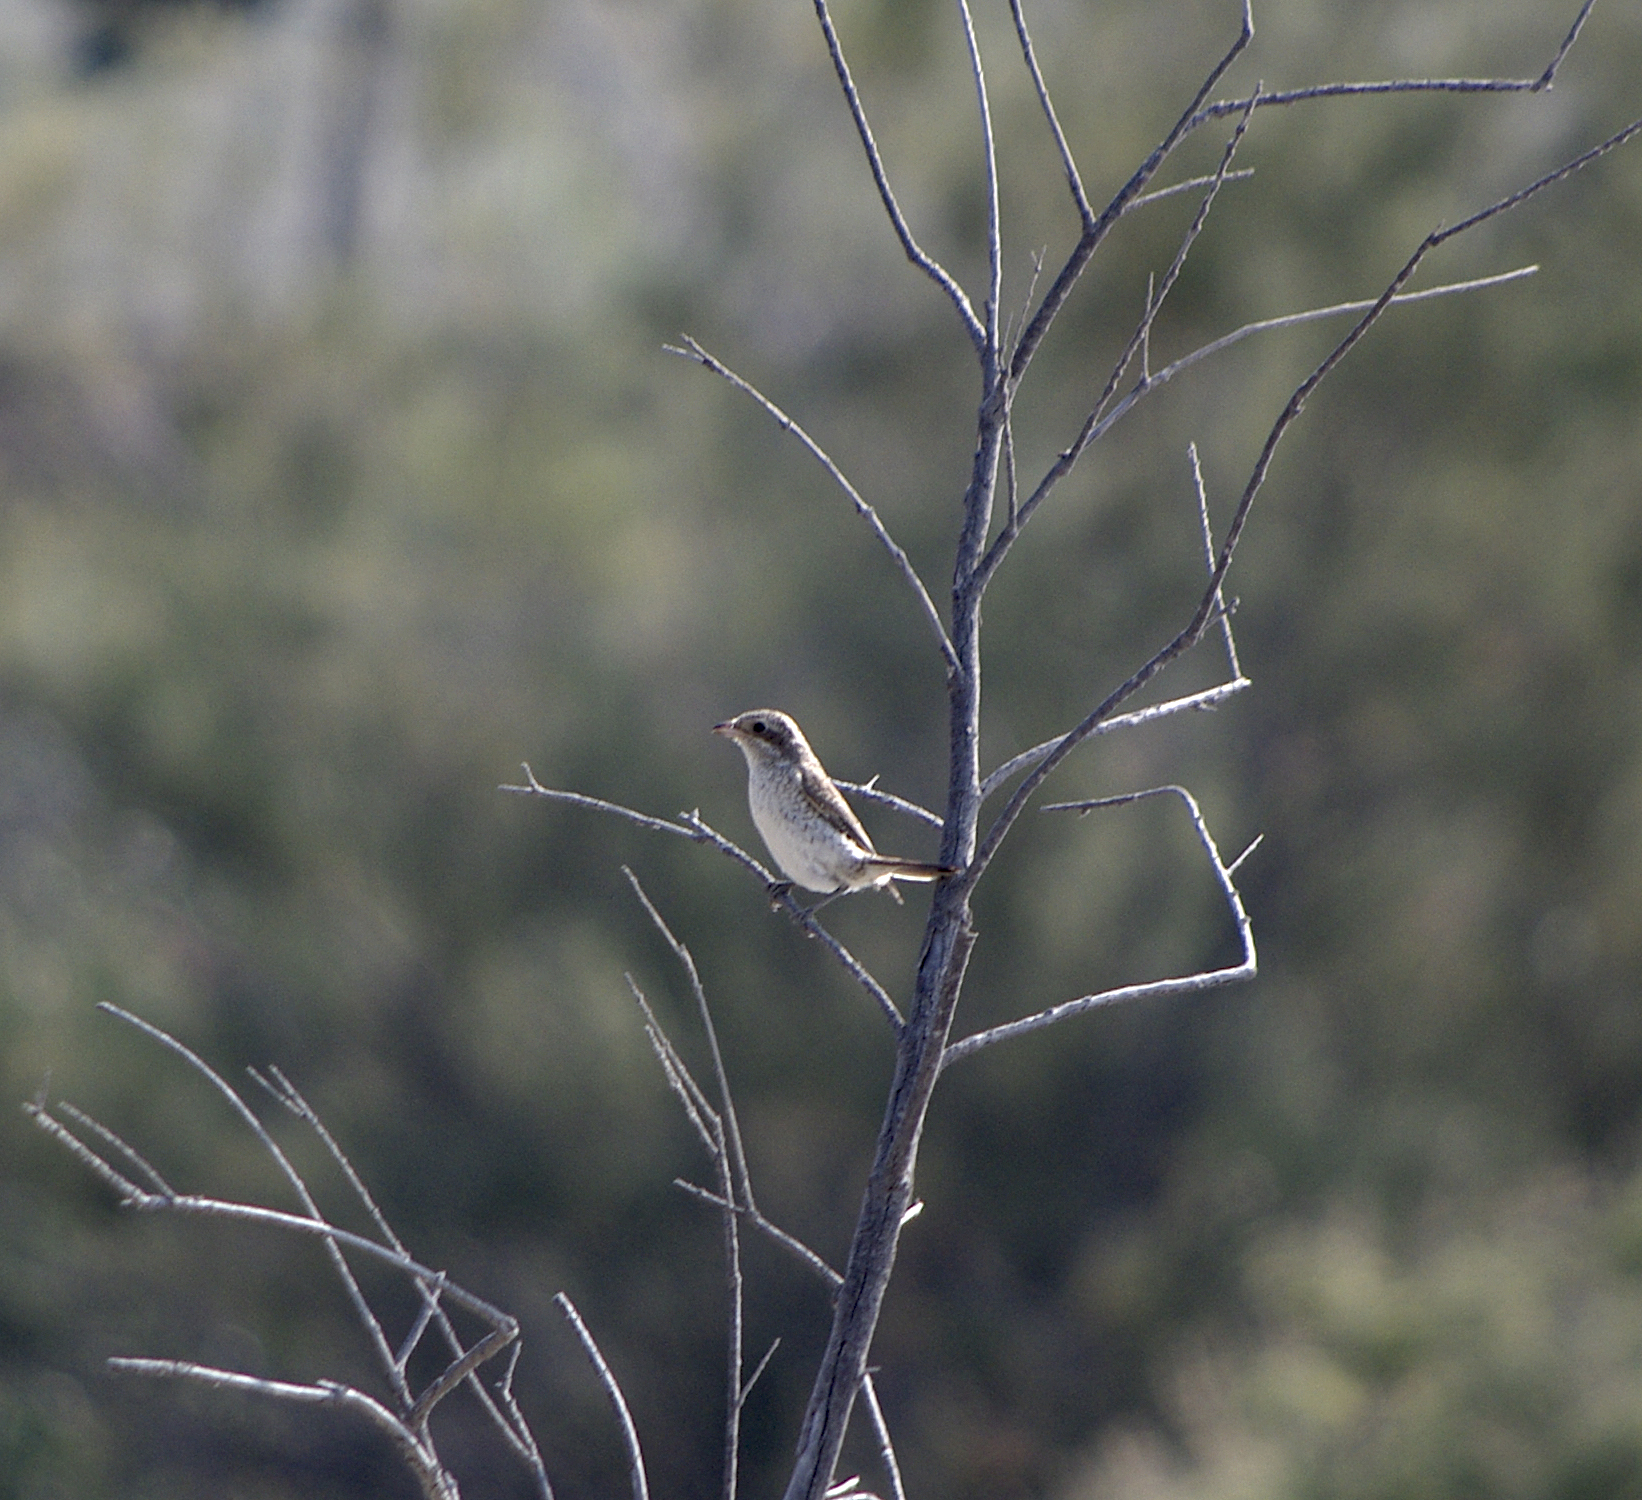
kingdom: Animalia
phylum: Chordata
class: Aves
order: Passeriformes
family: Laniidae
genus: Lanius
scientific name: Lanius collurio
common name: Red-backed shrike
